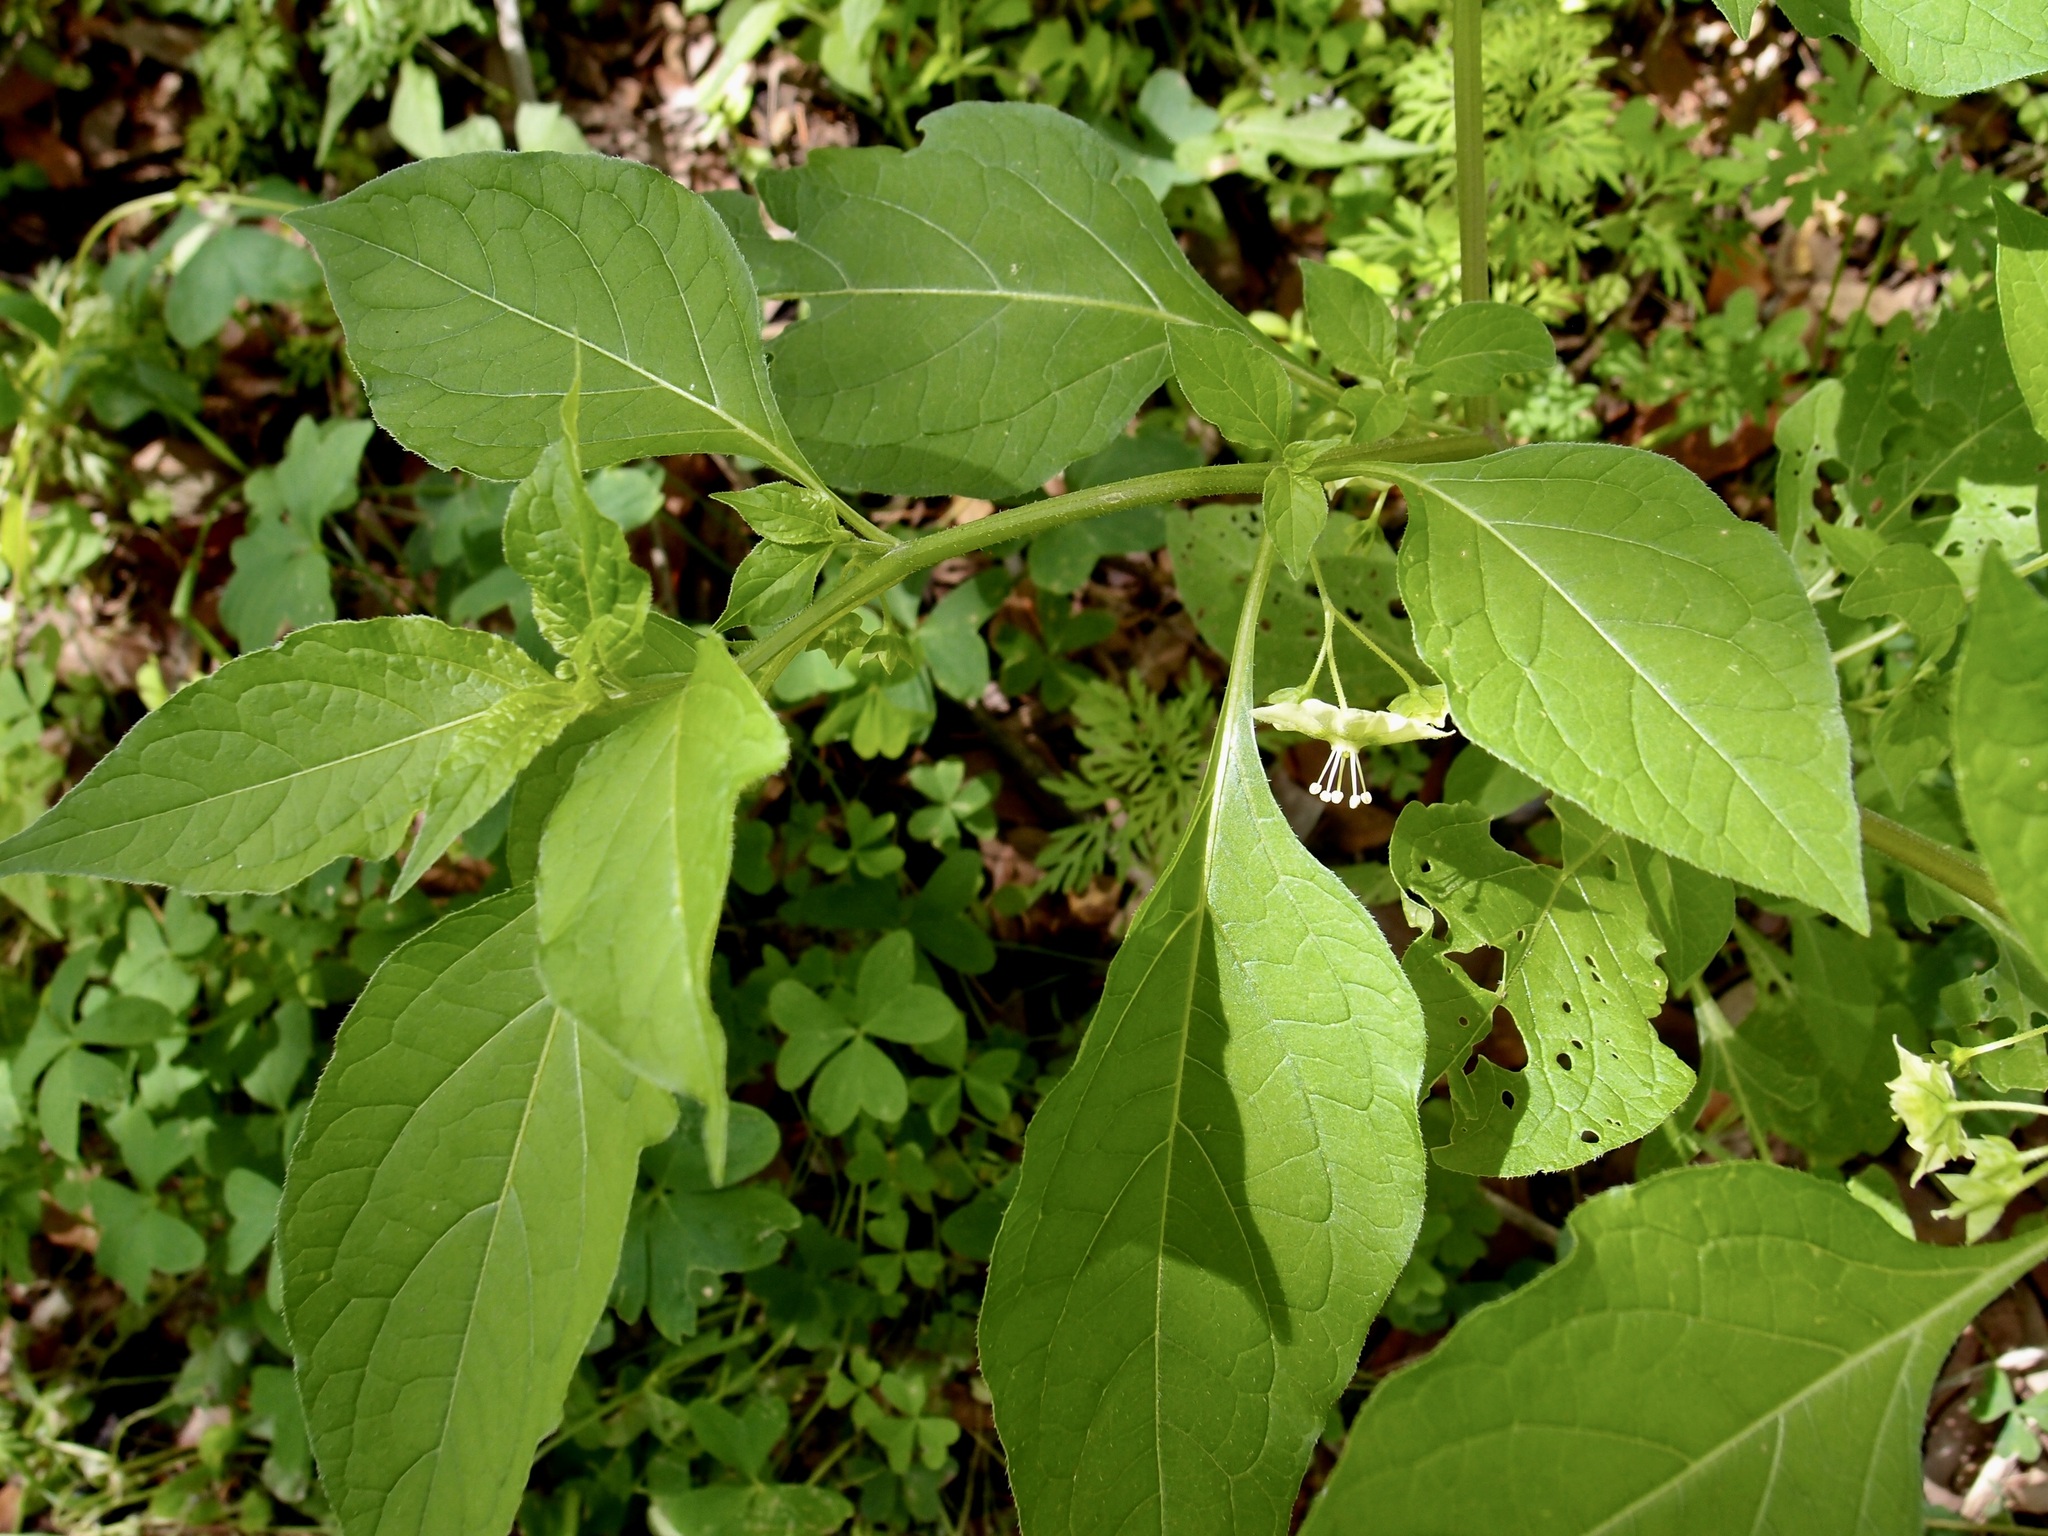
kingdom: Plantae
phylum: Tracheophyta
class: Magnoliopsida
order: Solanales
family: Solanaceae
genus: Jaltomata
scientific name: Jaltomata procumbens
